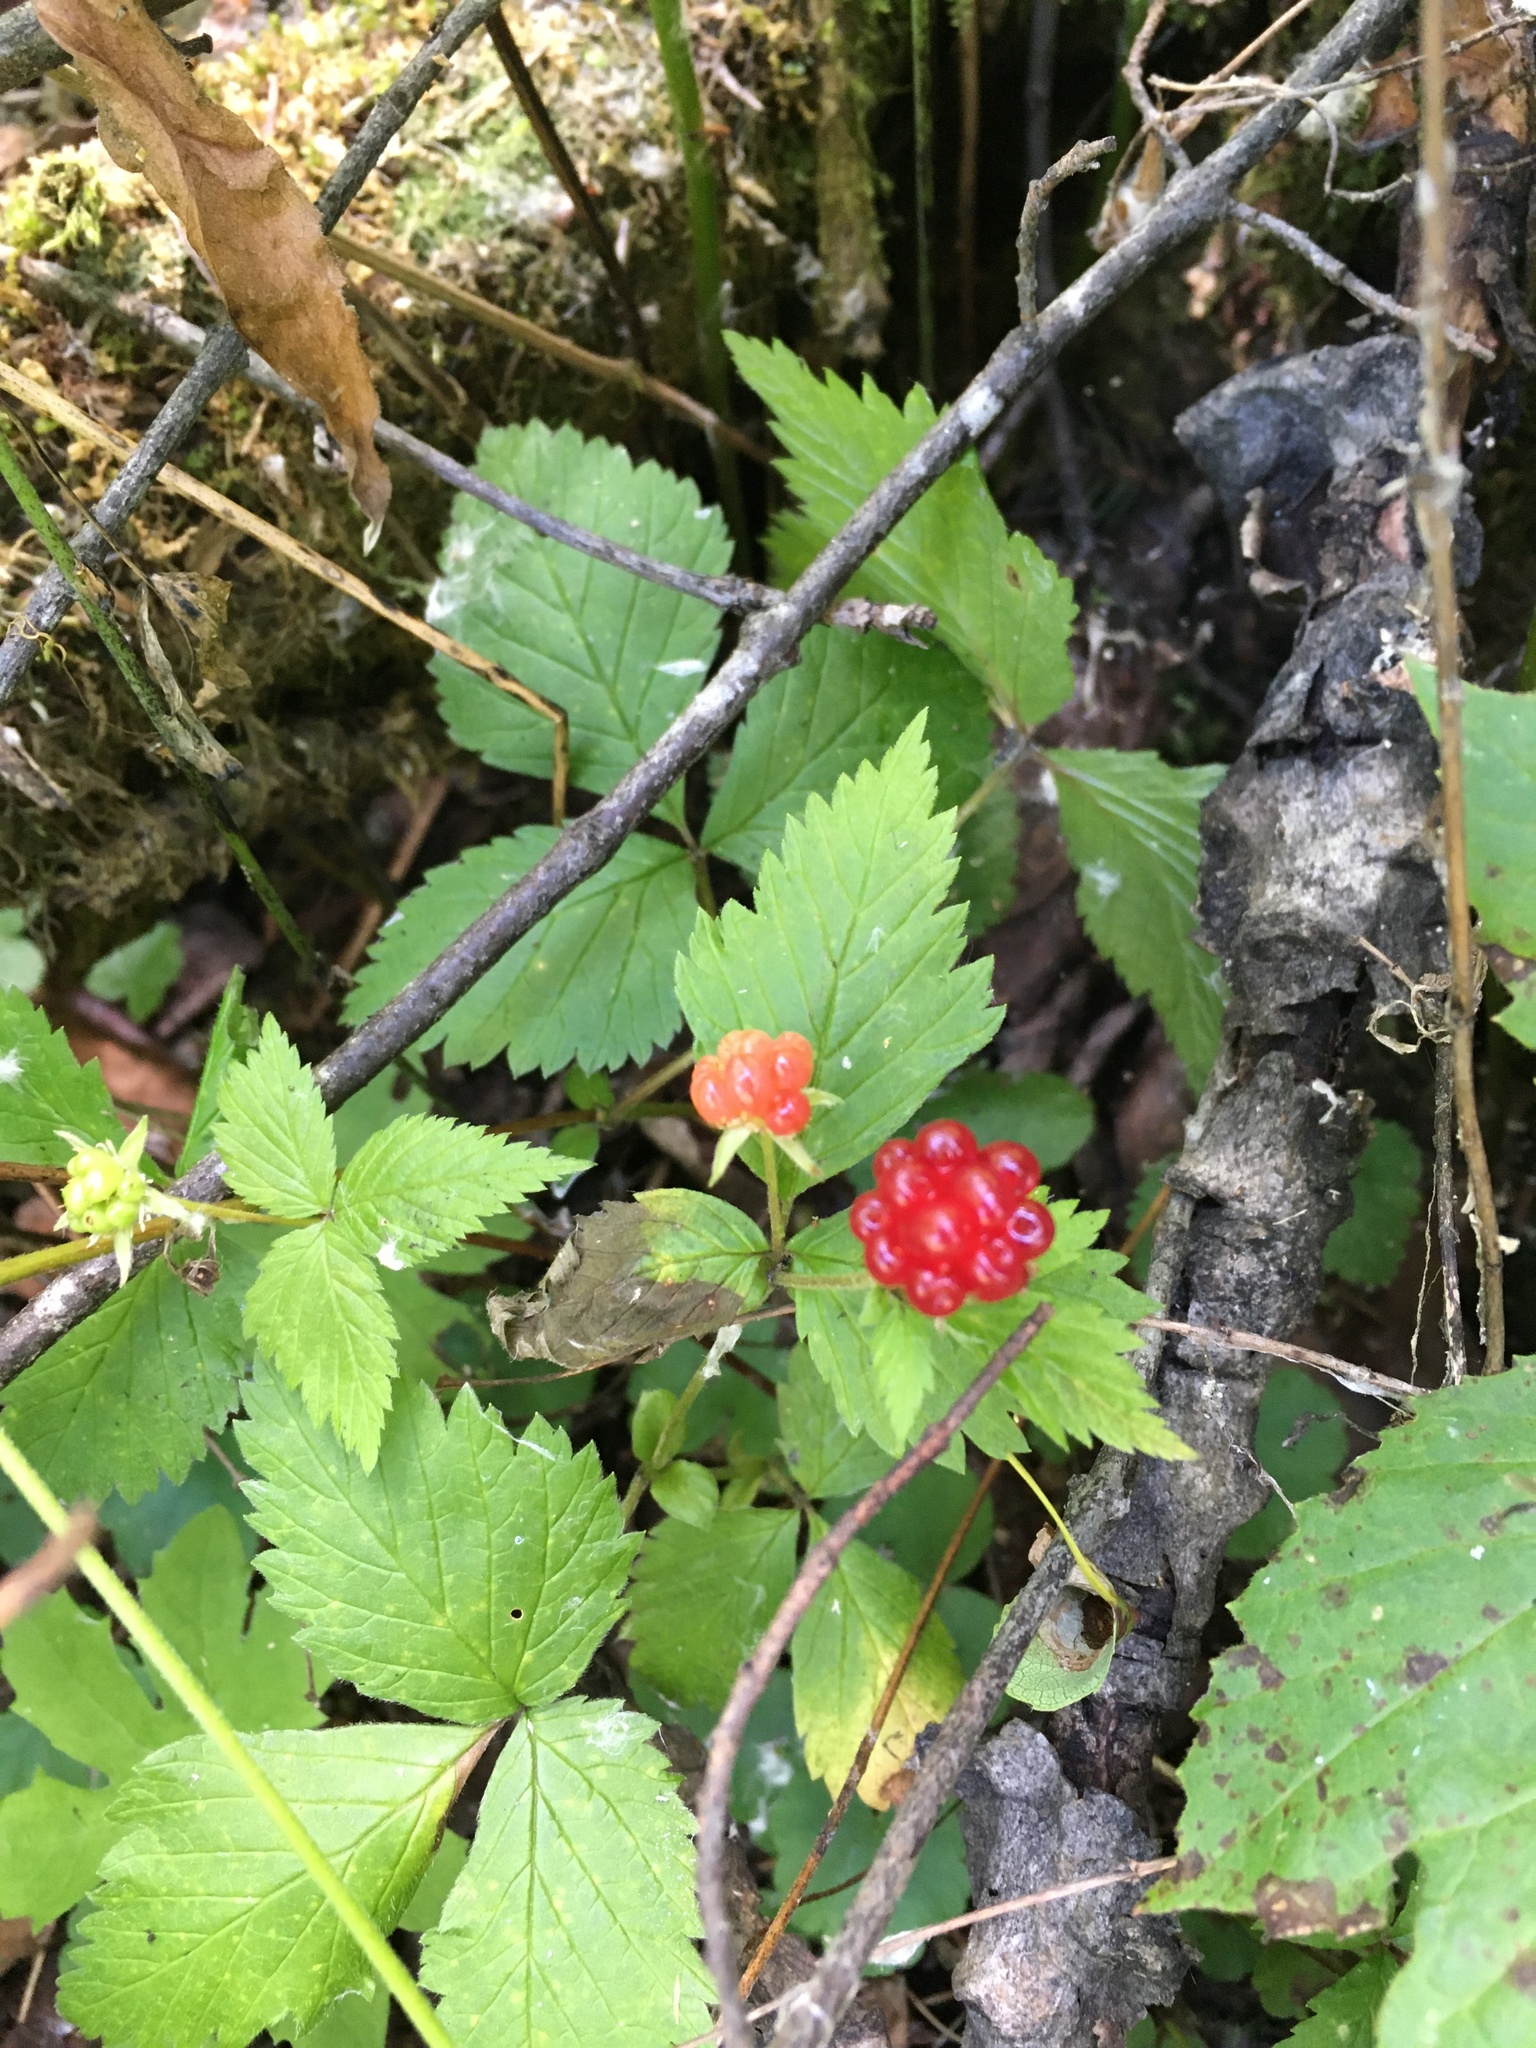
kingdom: Plantae
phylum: Tracheophyta
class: Magnoliopsida
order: Rosales
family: Rosaceae
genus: Rubus
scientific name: Rubus pubescens
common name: Dwarf raspberry
